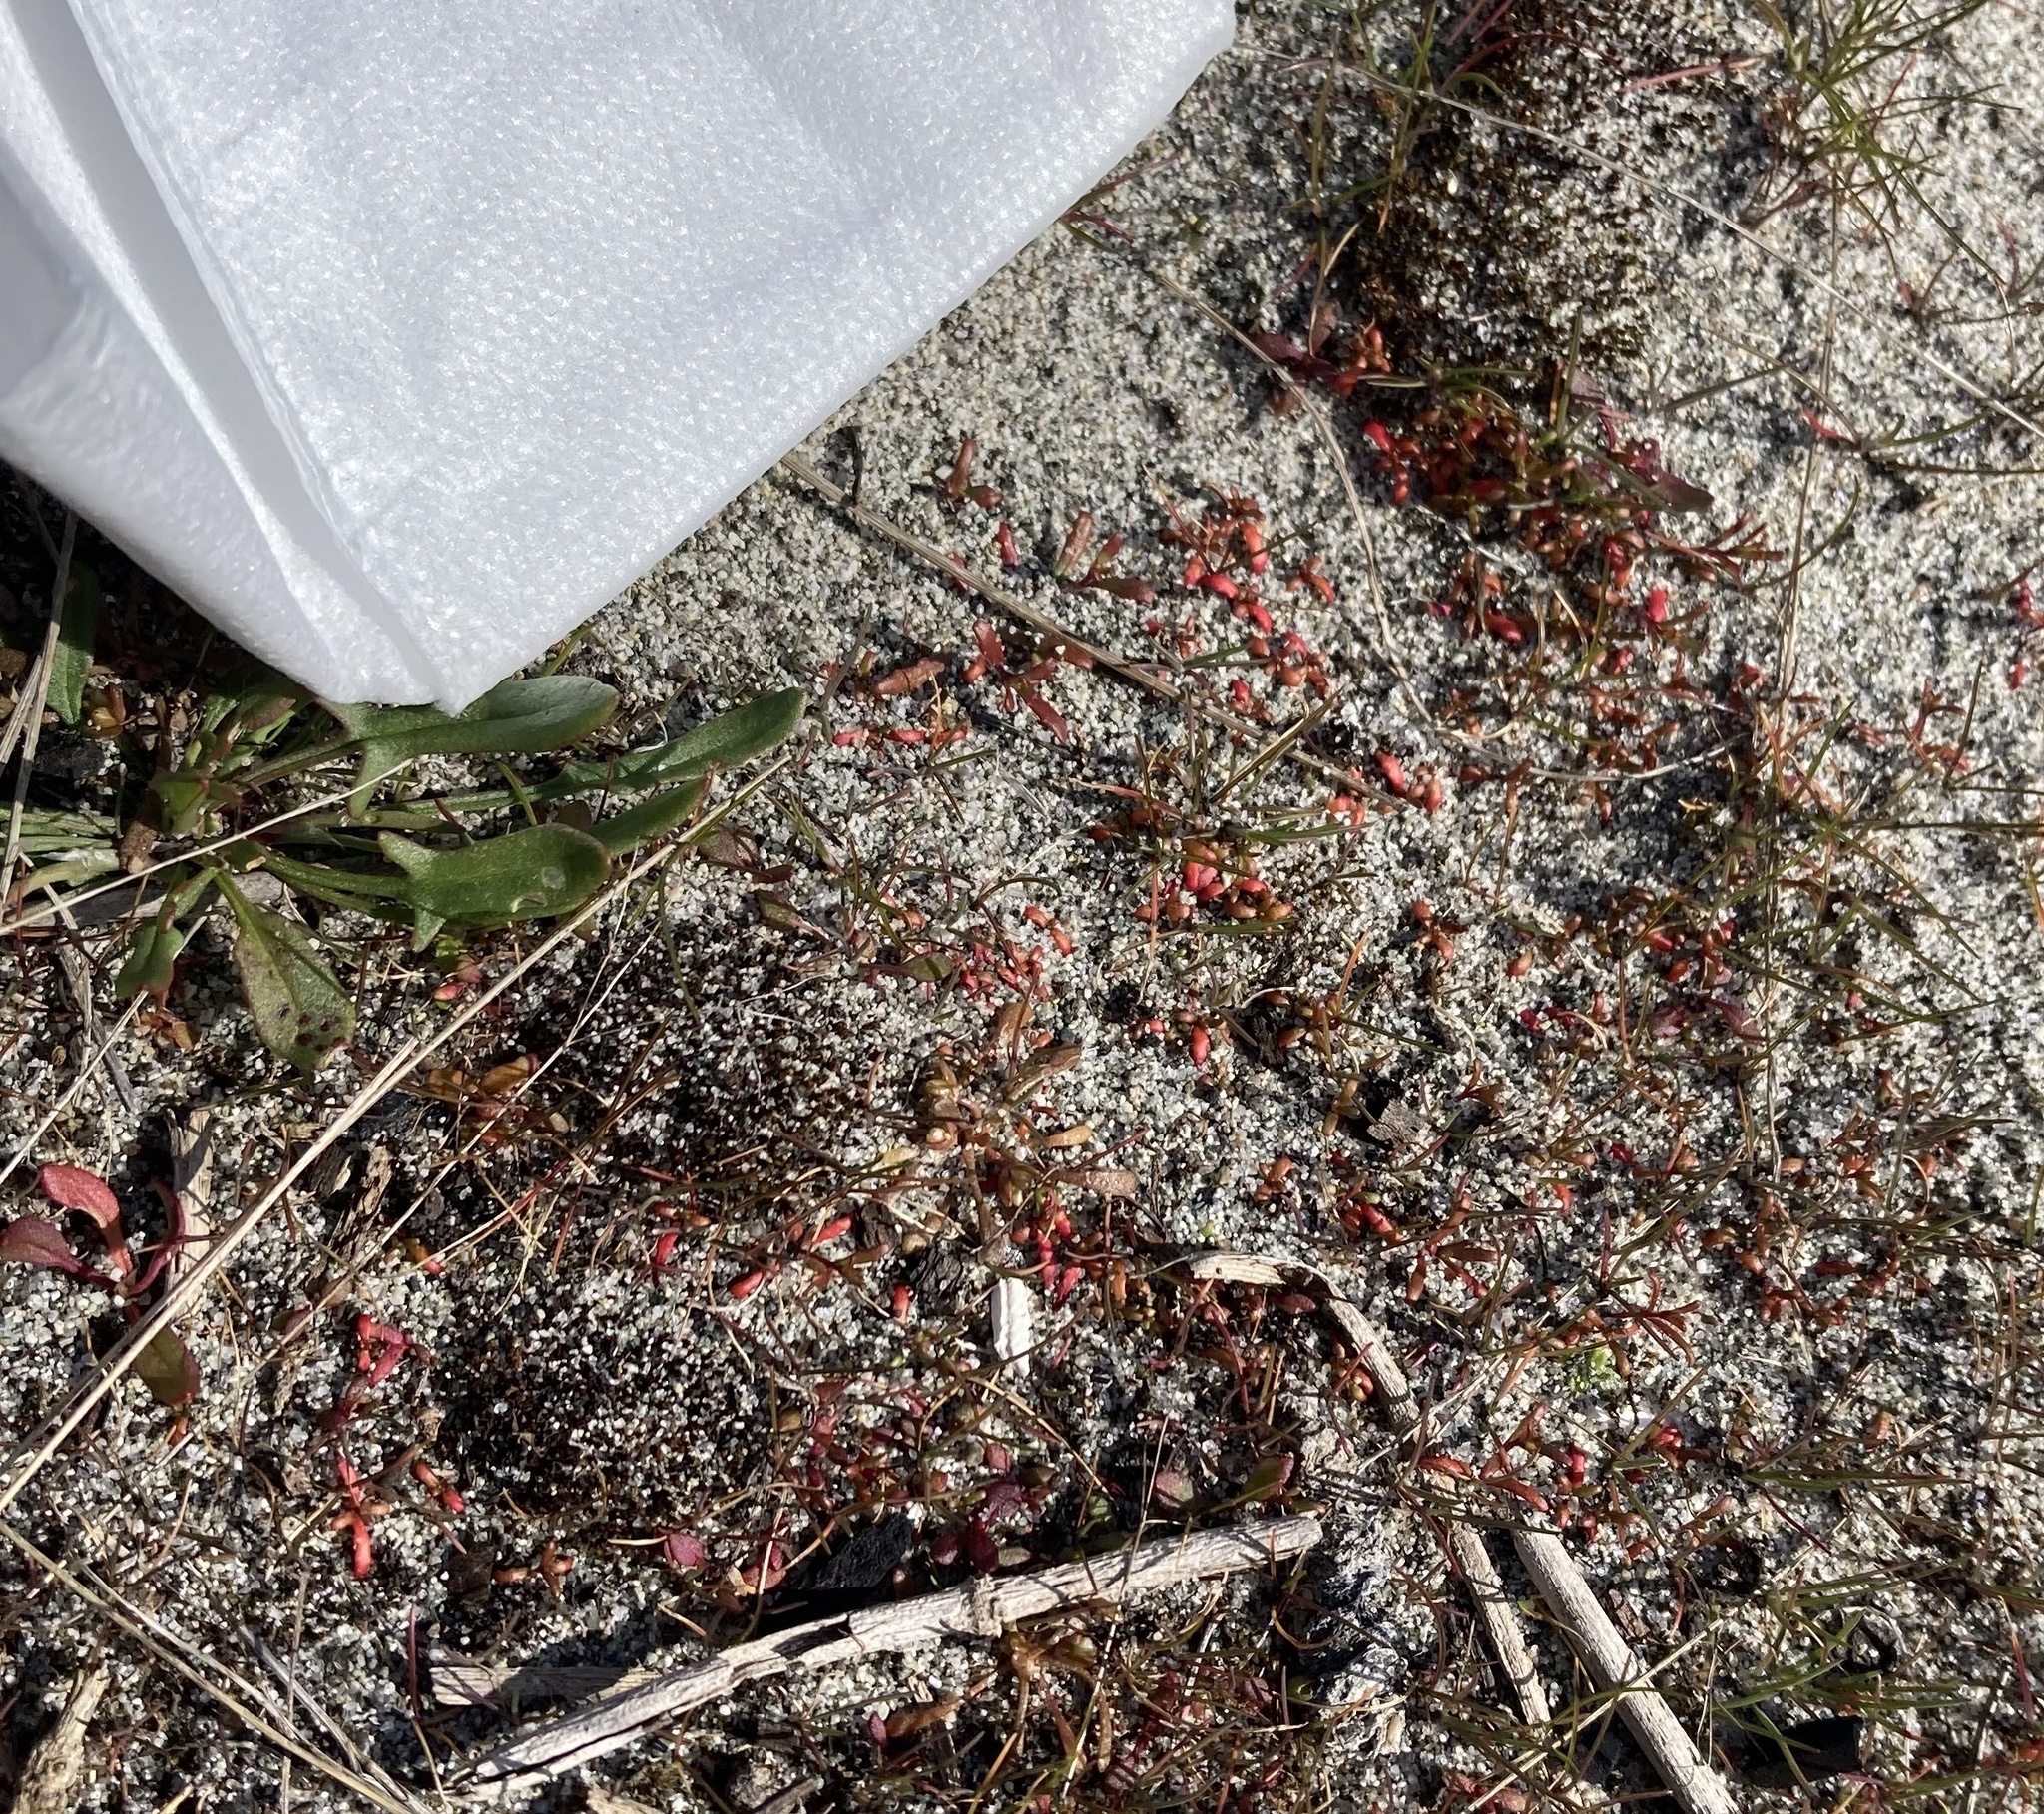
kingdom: Plantae
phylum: Tracheophyta
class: Magnoliopsida
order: Myrtales
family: Onagraceae
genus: Camissonia
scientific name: Camissonia contorta
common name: Contorted suncup
